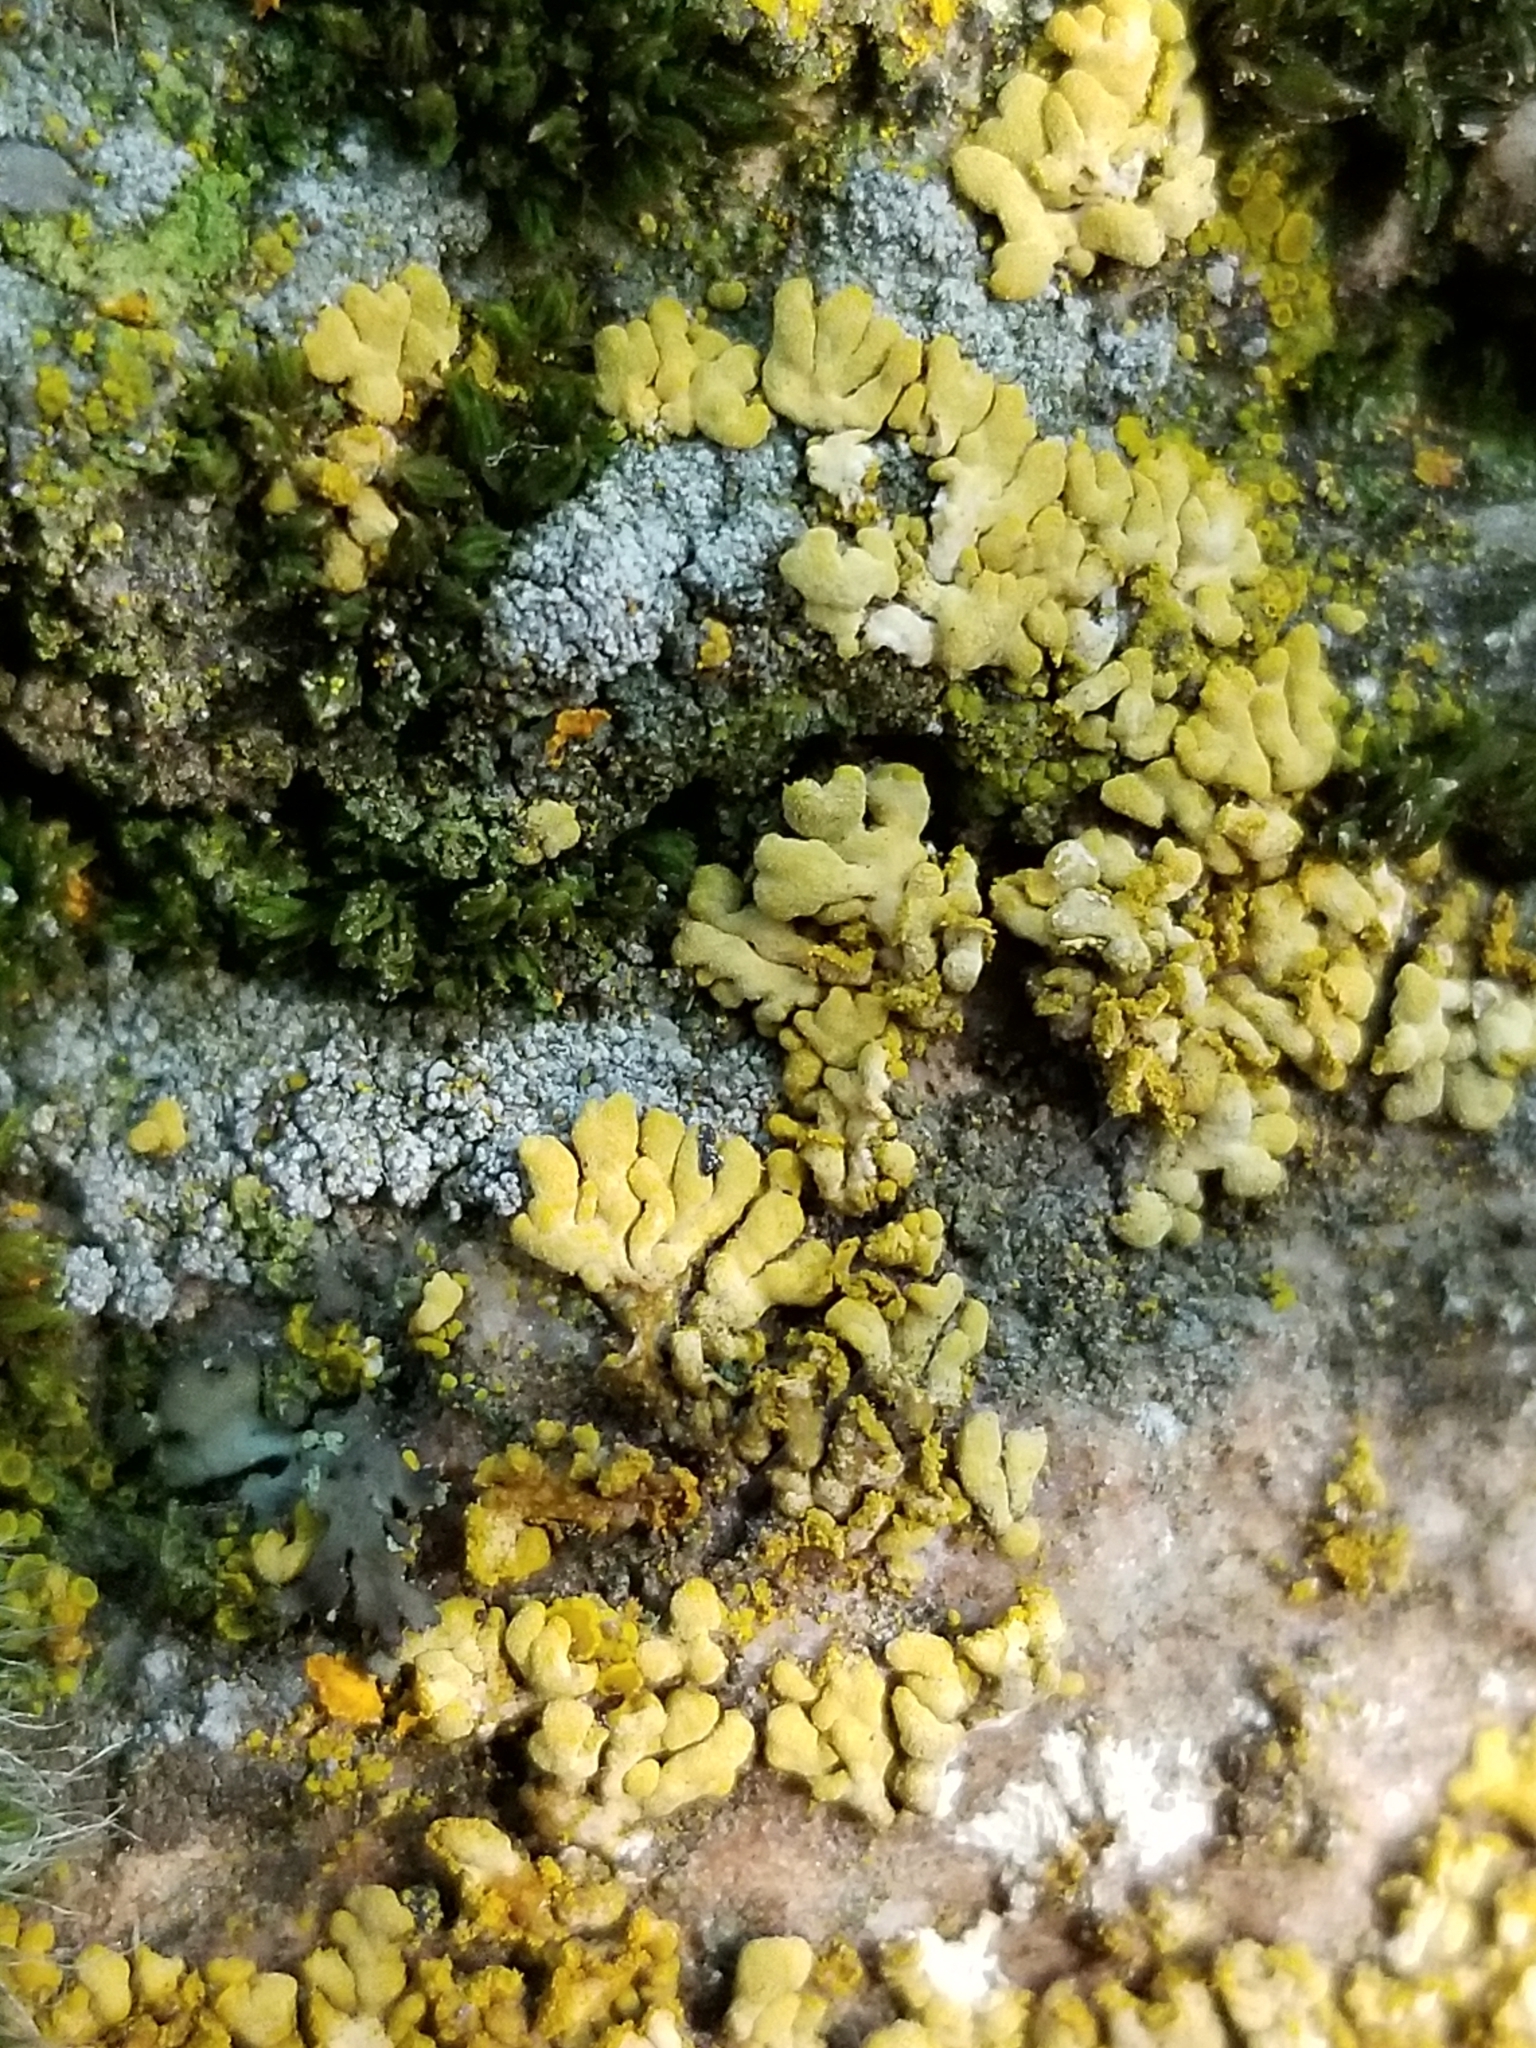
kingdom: Fungi
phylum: Ascomycota
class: Lecanoromycetes
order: Teloschistales
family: Teloschistaceae
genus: Calogaya
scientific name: Calogaya decipiens
